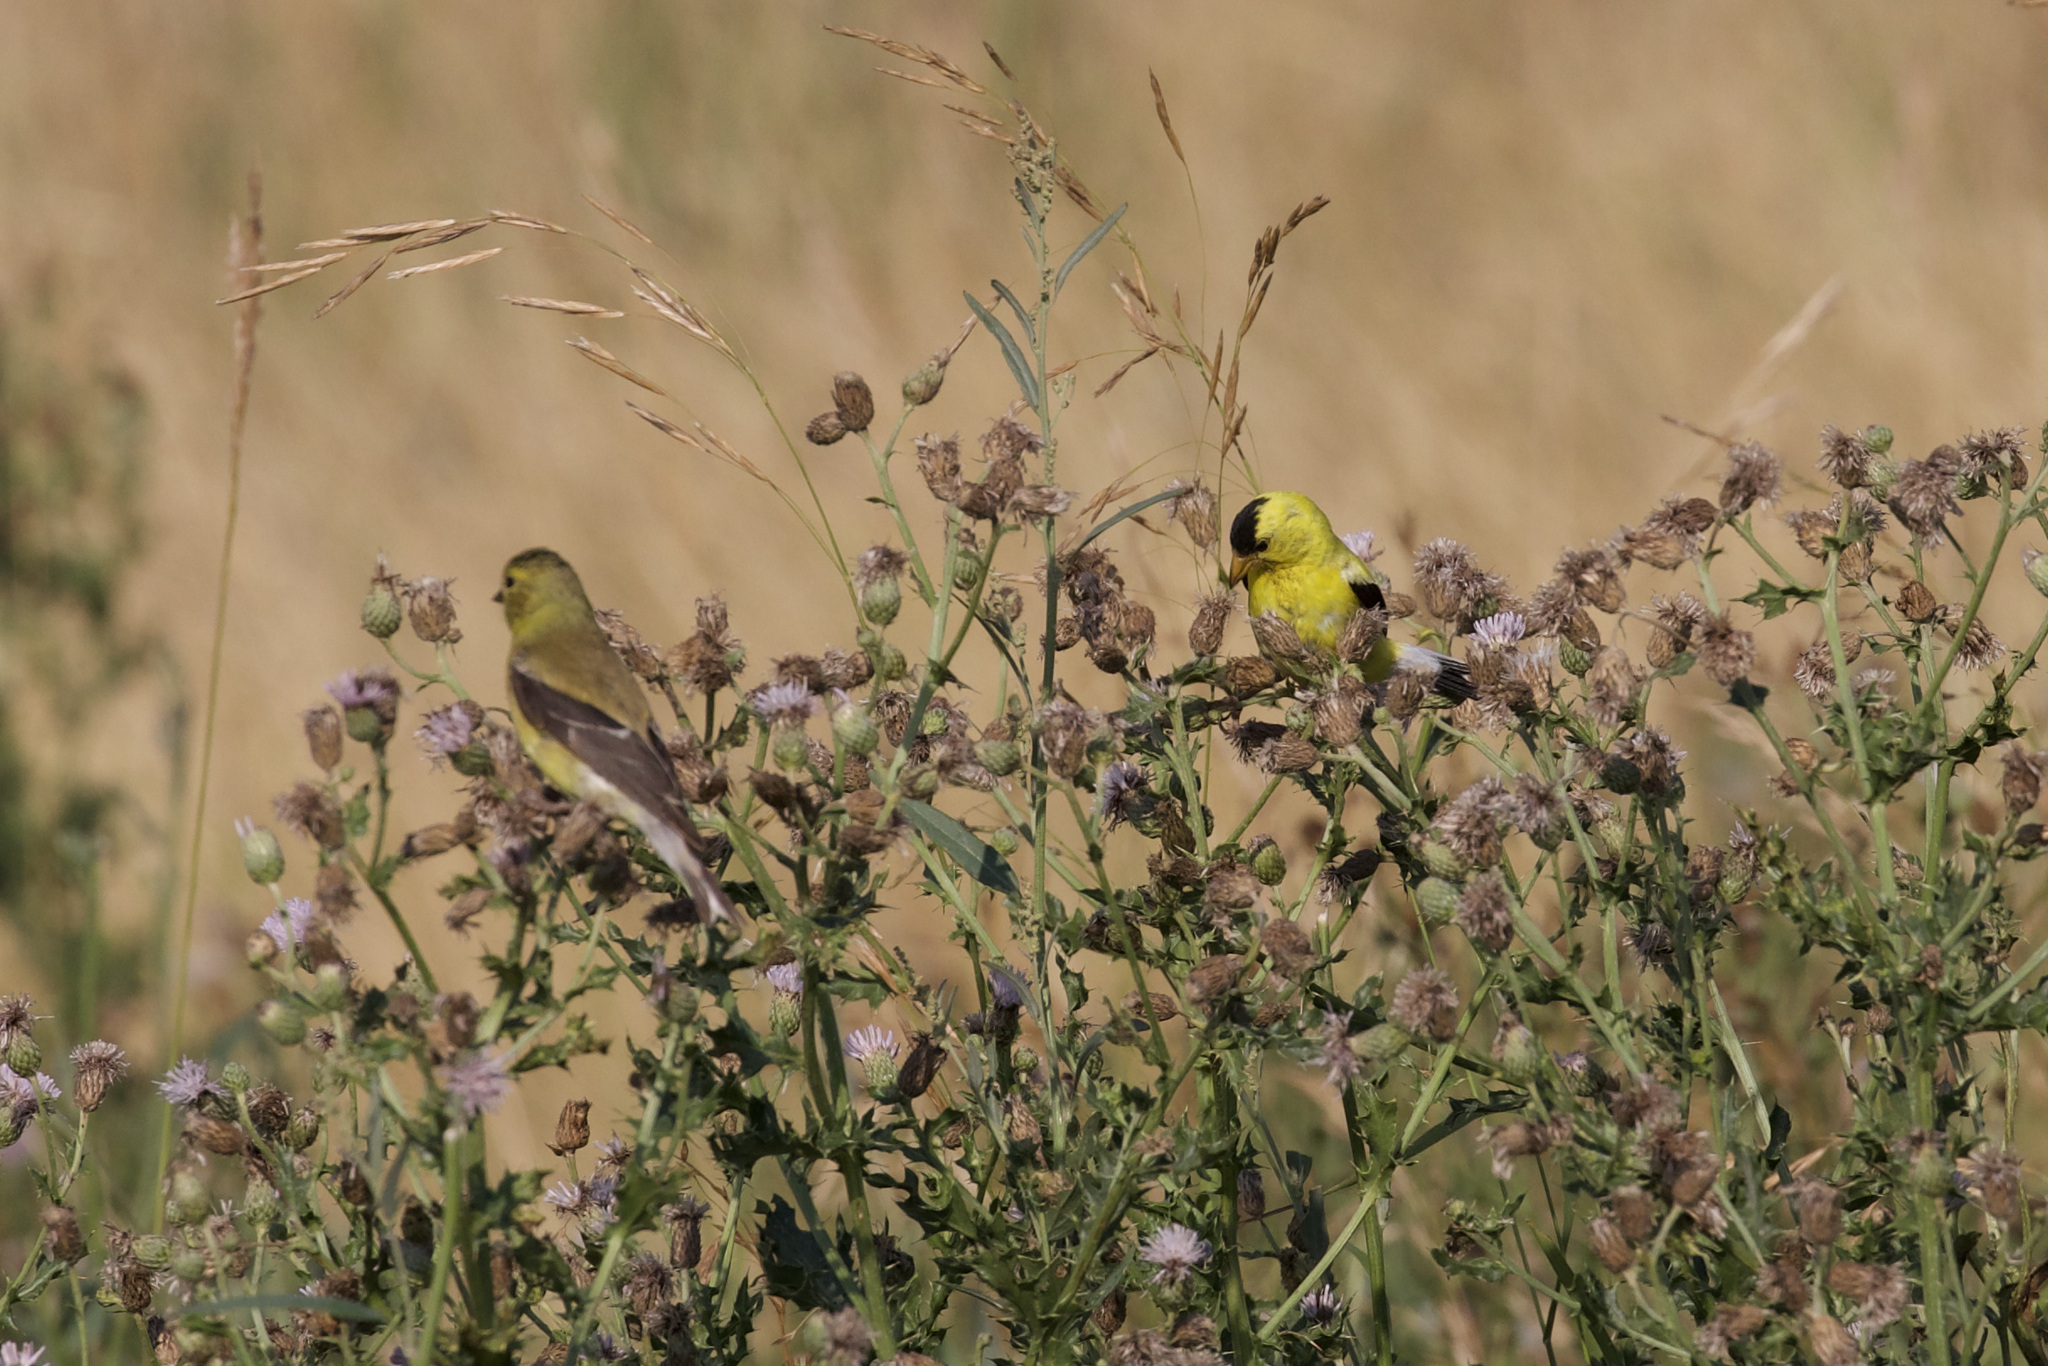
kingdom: Animalia
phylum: Chordata
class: Aves
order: Passeriformes
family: Fringillidae
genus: Spinus
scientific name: Spinus tristis
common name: American goldfinch
